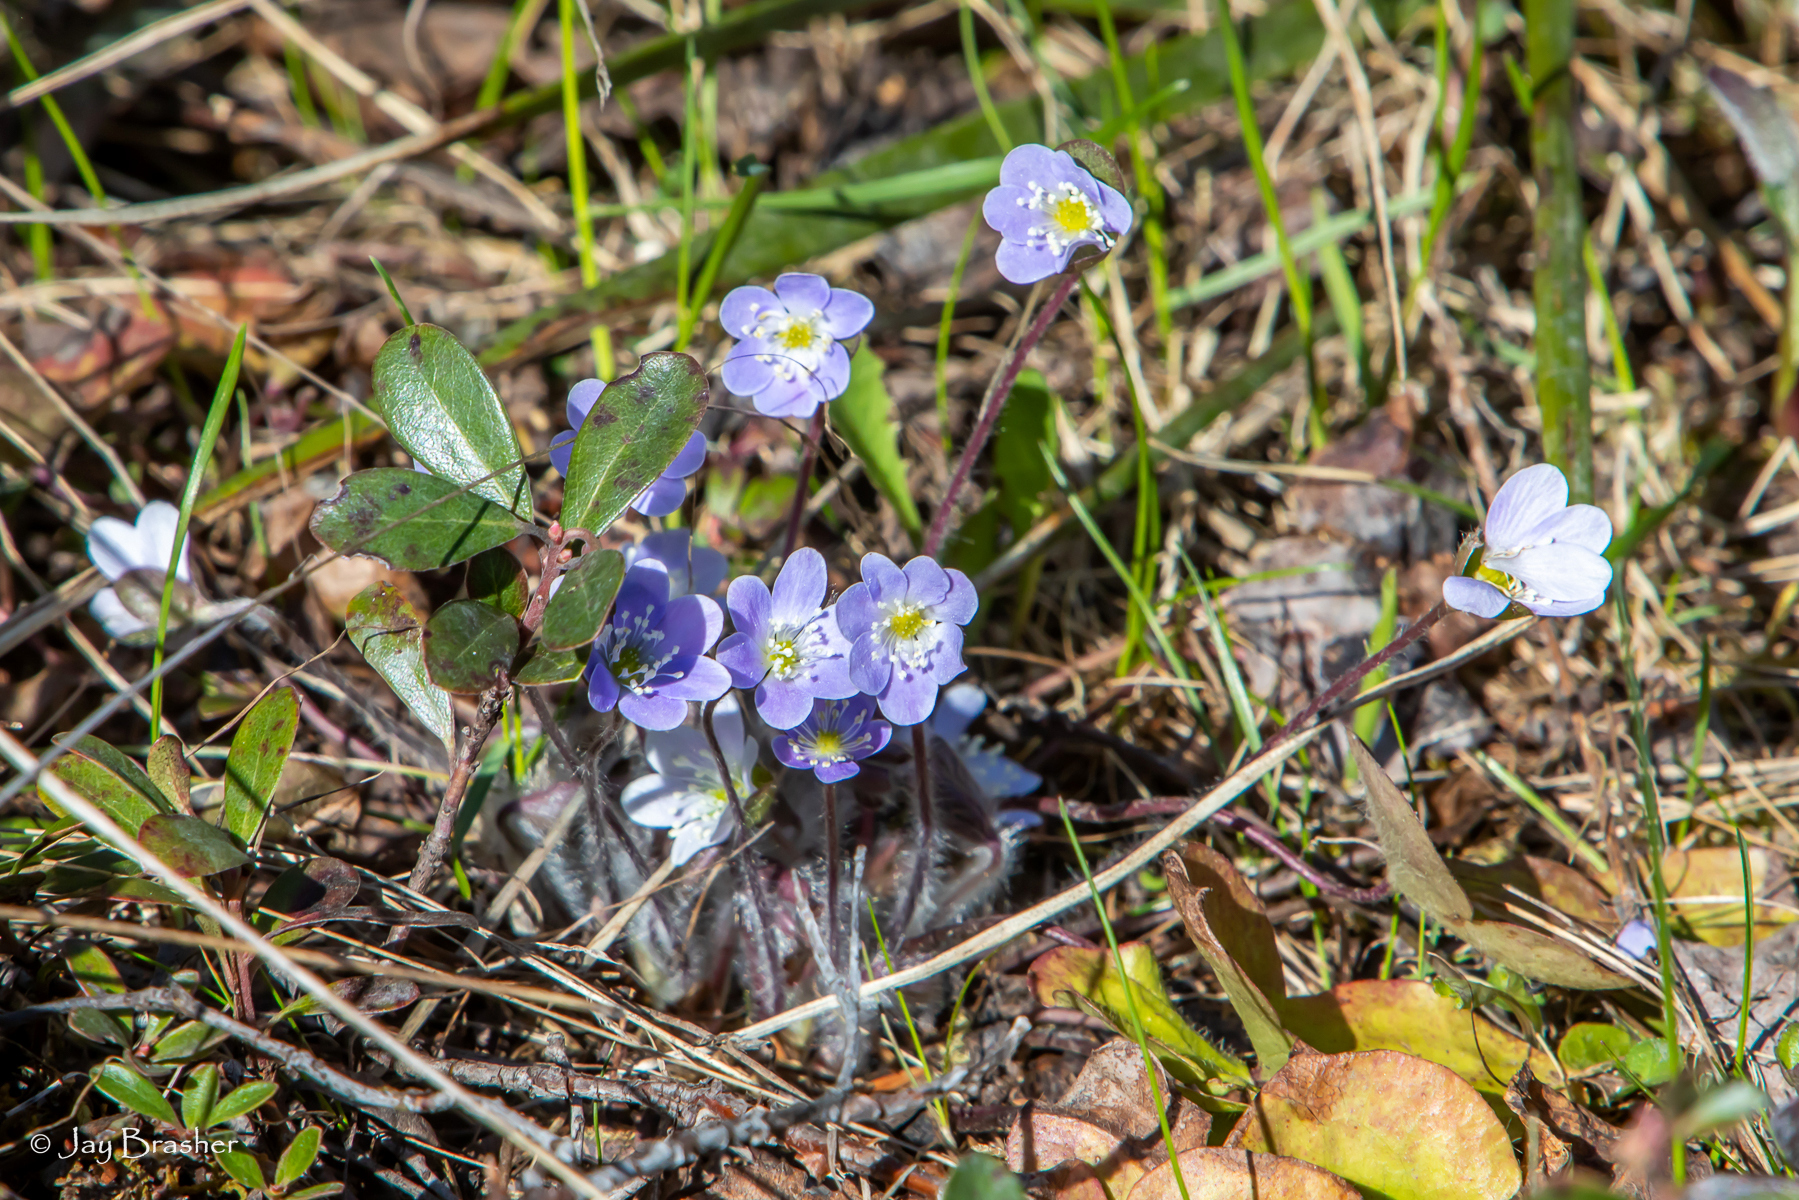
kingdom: Plantae
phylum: Tracheophyta
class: Magnoliopsida
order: Ranunculales
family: Ranunculaceae
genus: Hepatica
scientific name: Hepatica americana
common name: American hepatica
